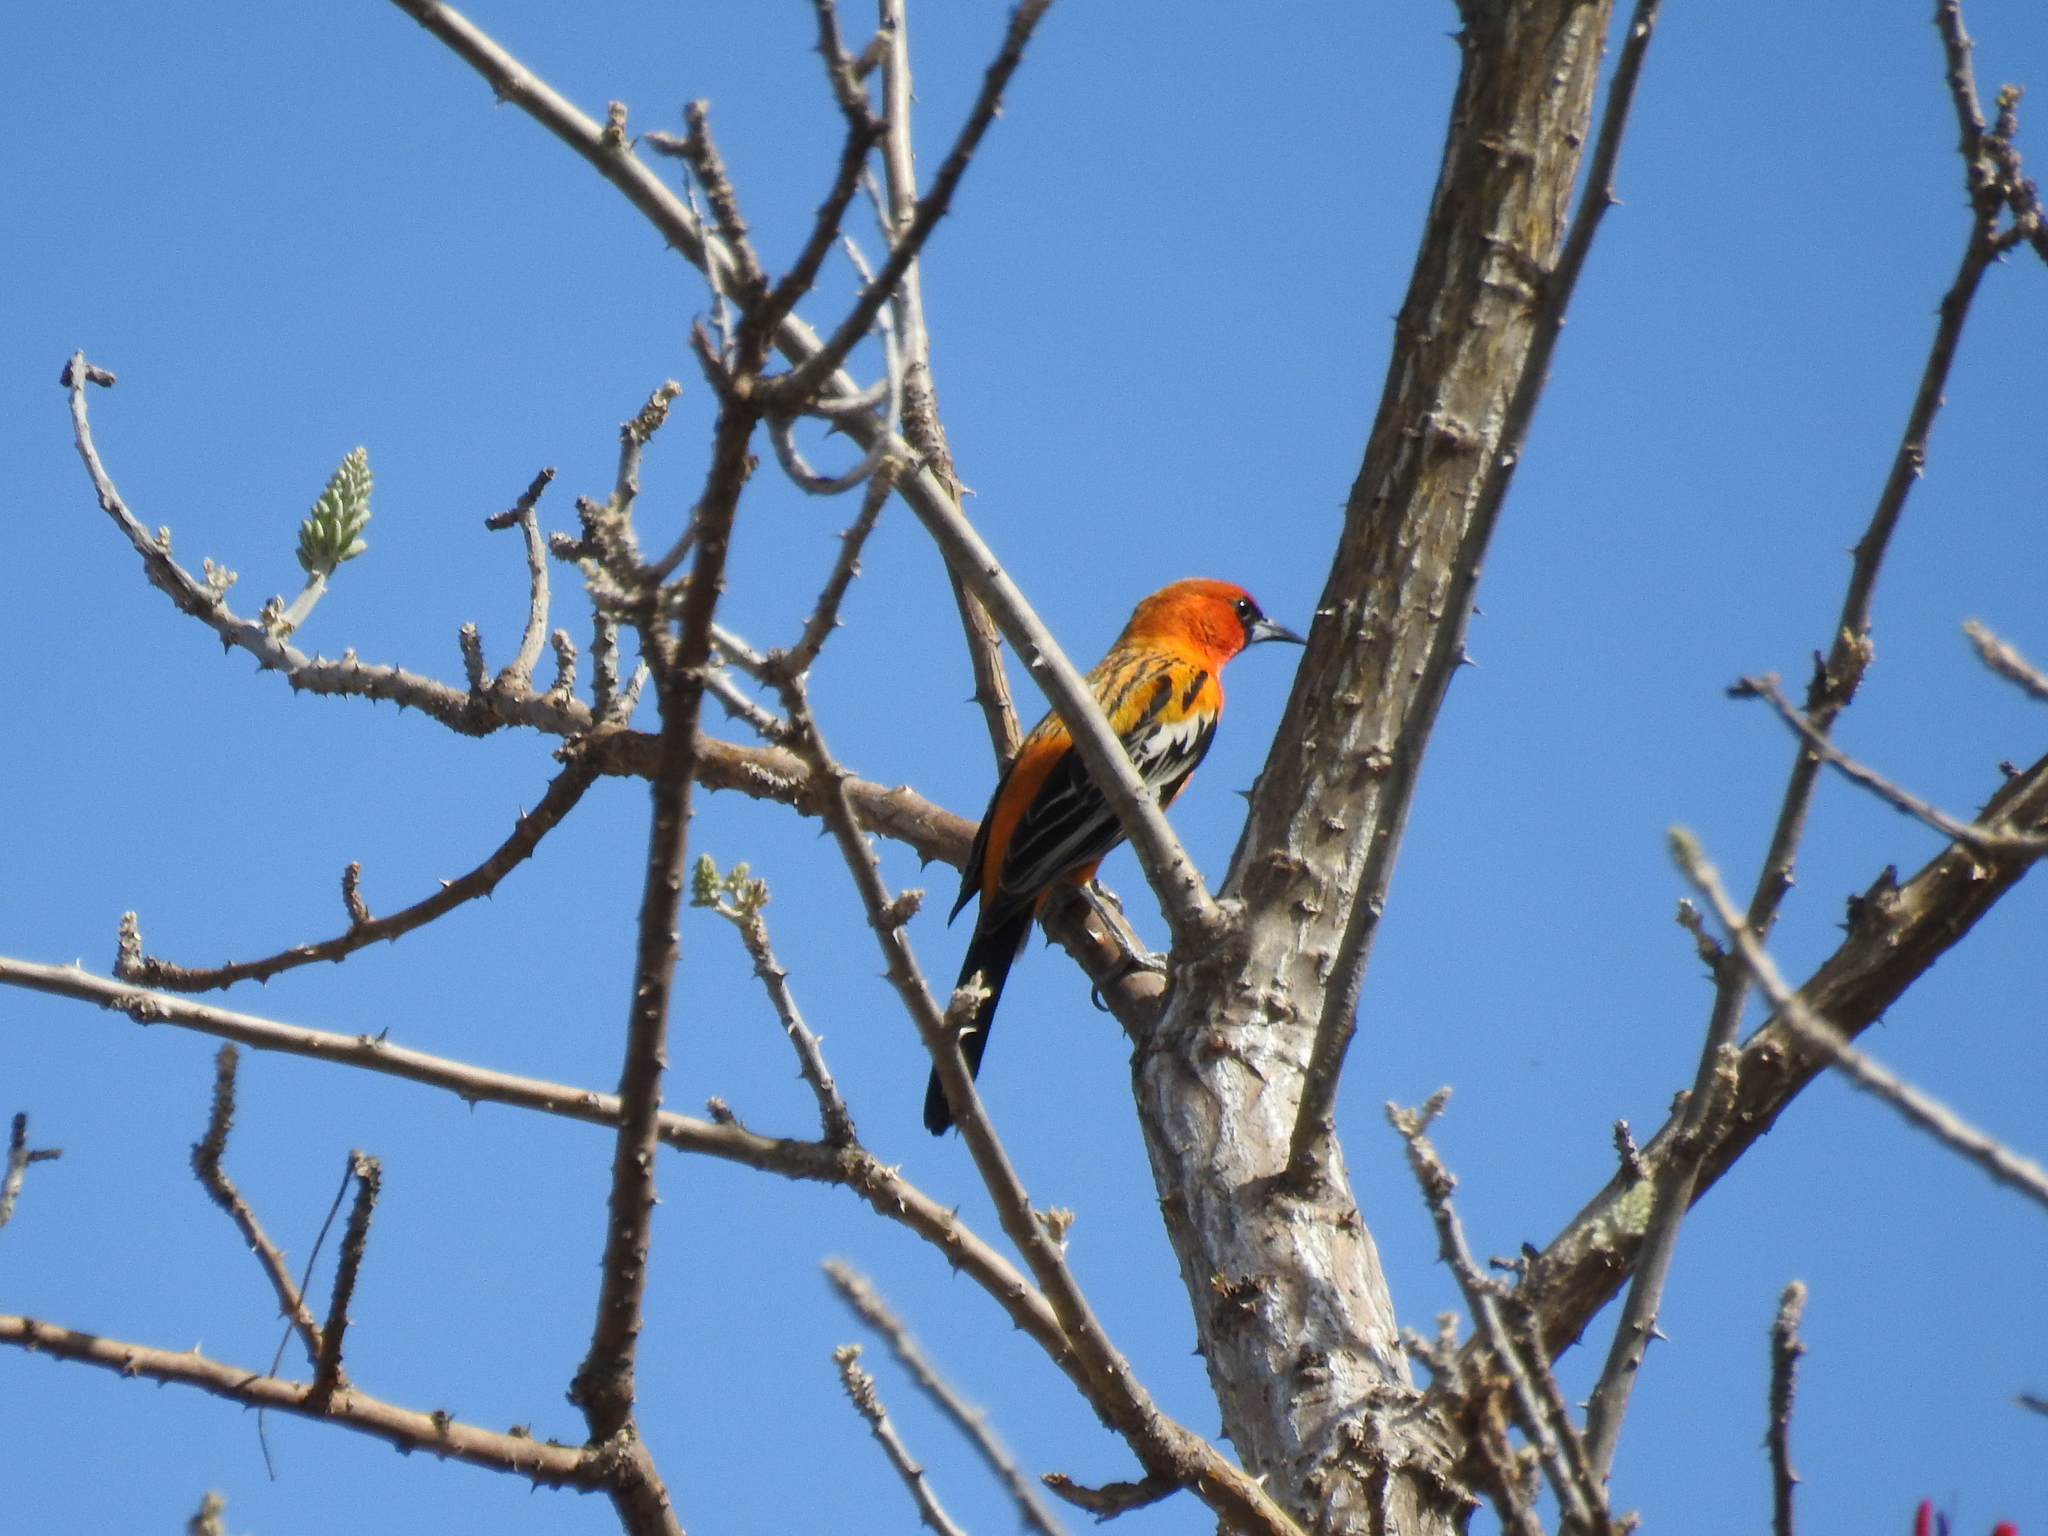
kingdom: Animalia
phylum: Chordata
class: Aves
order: Passeriformes
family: Icteridae
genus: Icterus
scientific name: Icterus pustulatus
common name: Streak-backed oriole
